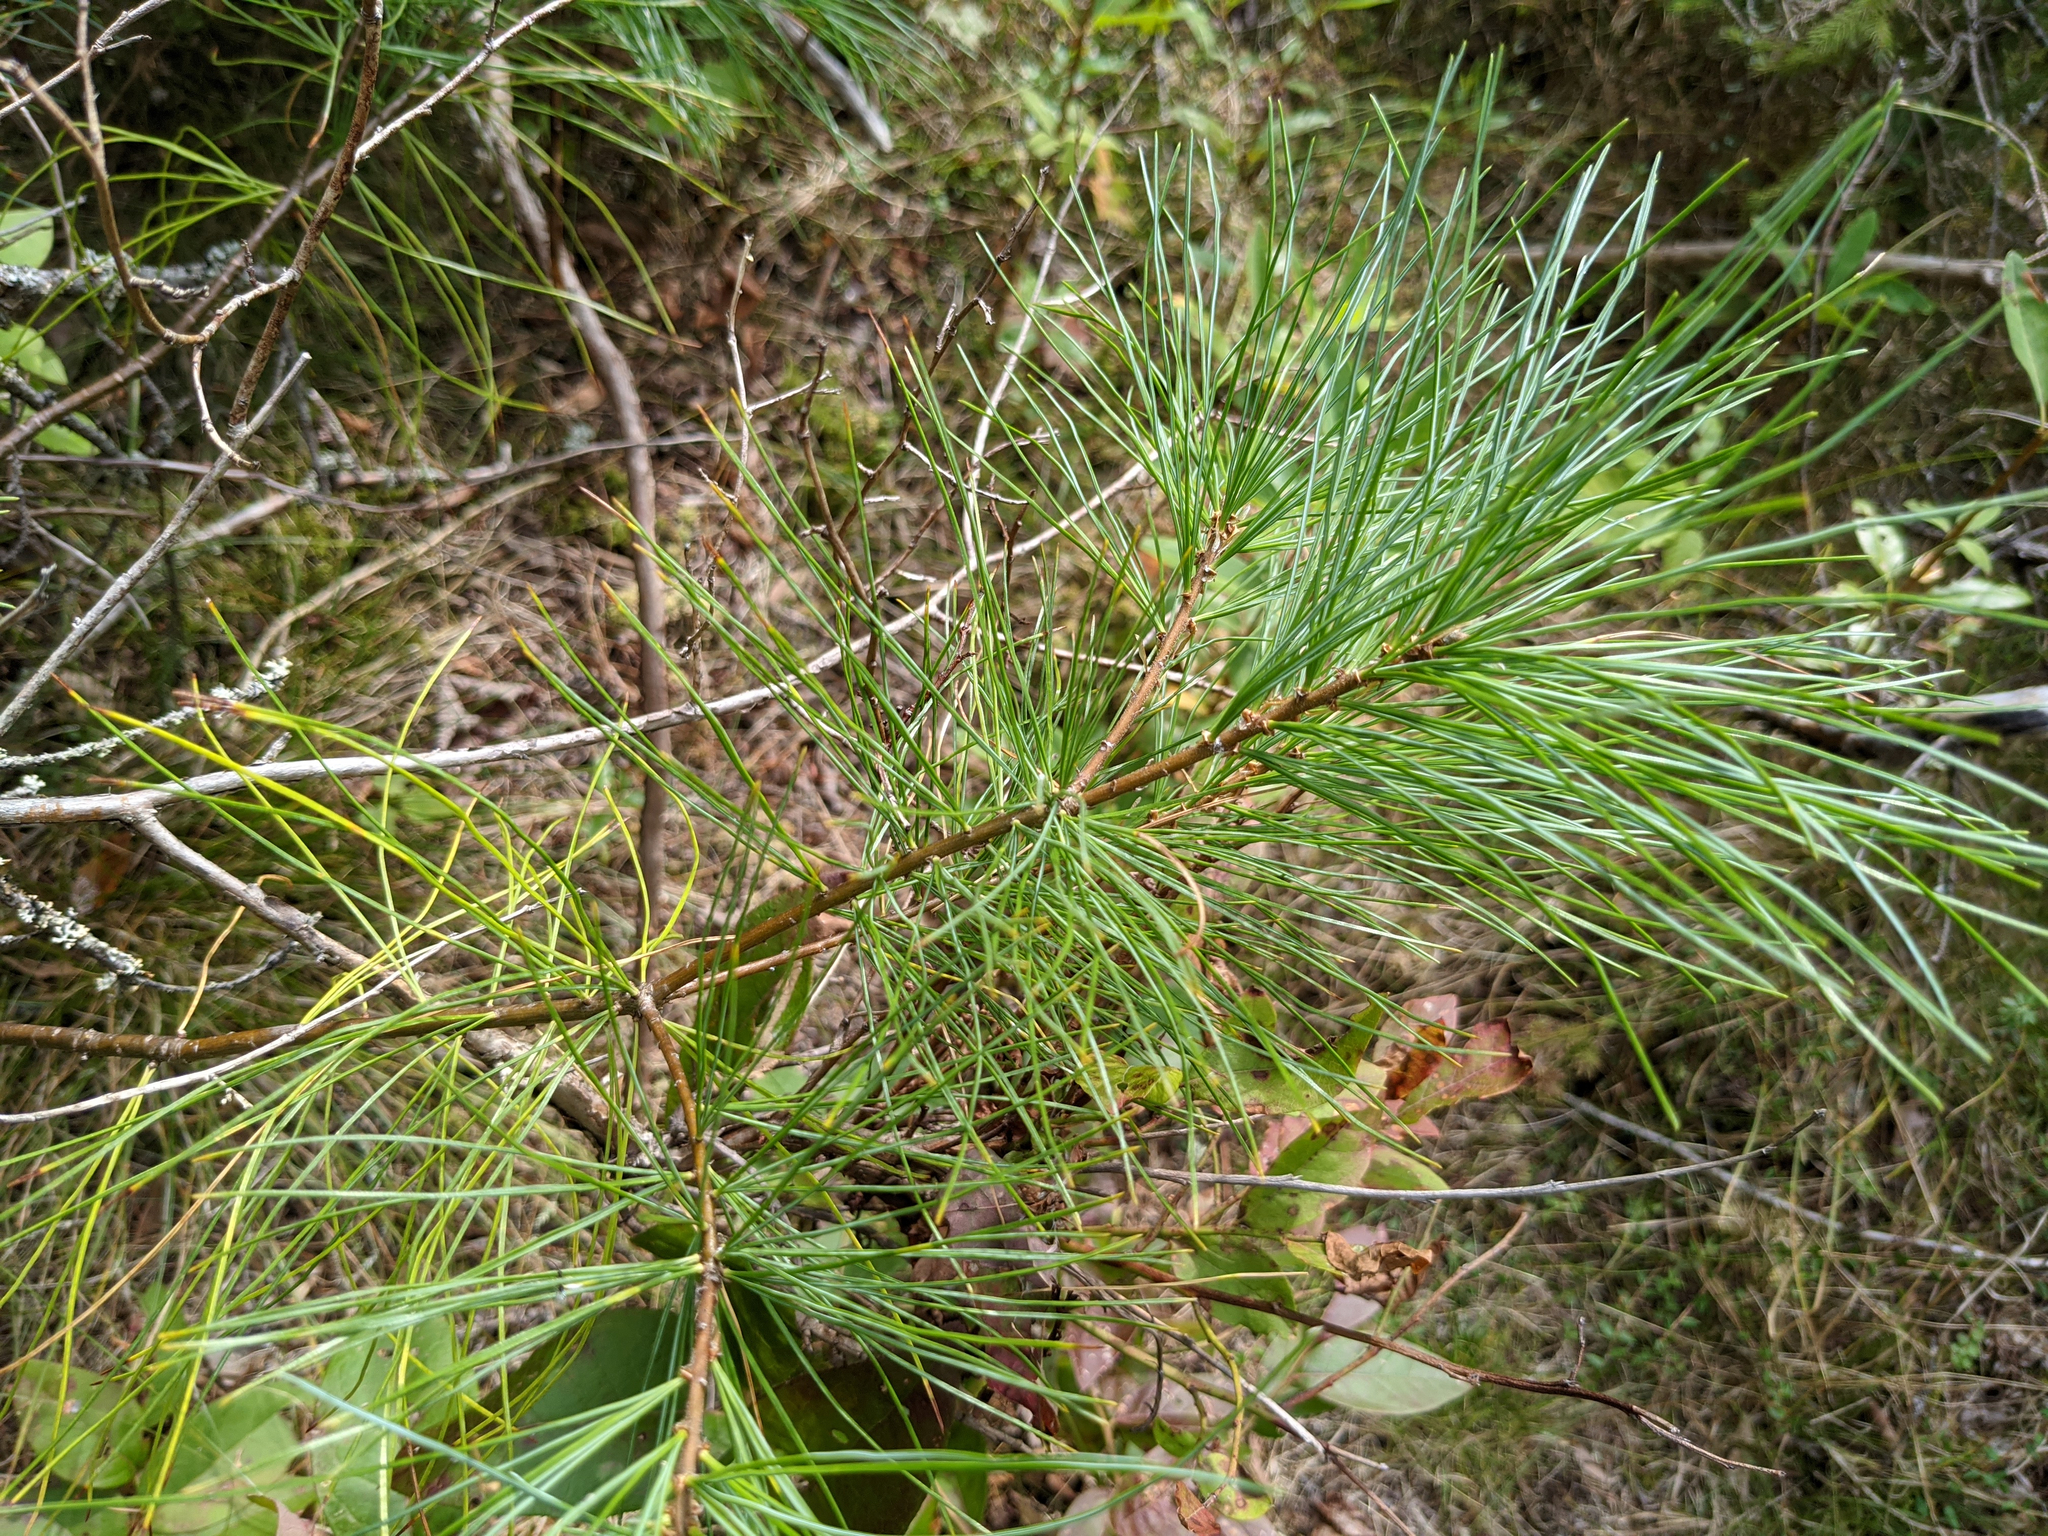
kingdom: Plantae
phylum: Tracheophyta
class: Pinopsida
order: Pinales
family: Pinaceae
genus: Pinus
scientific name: Pinus strobus
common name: Weymouth pine
